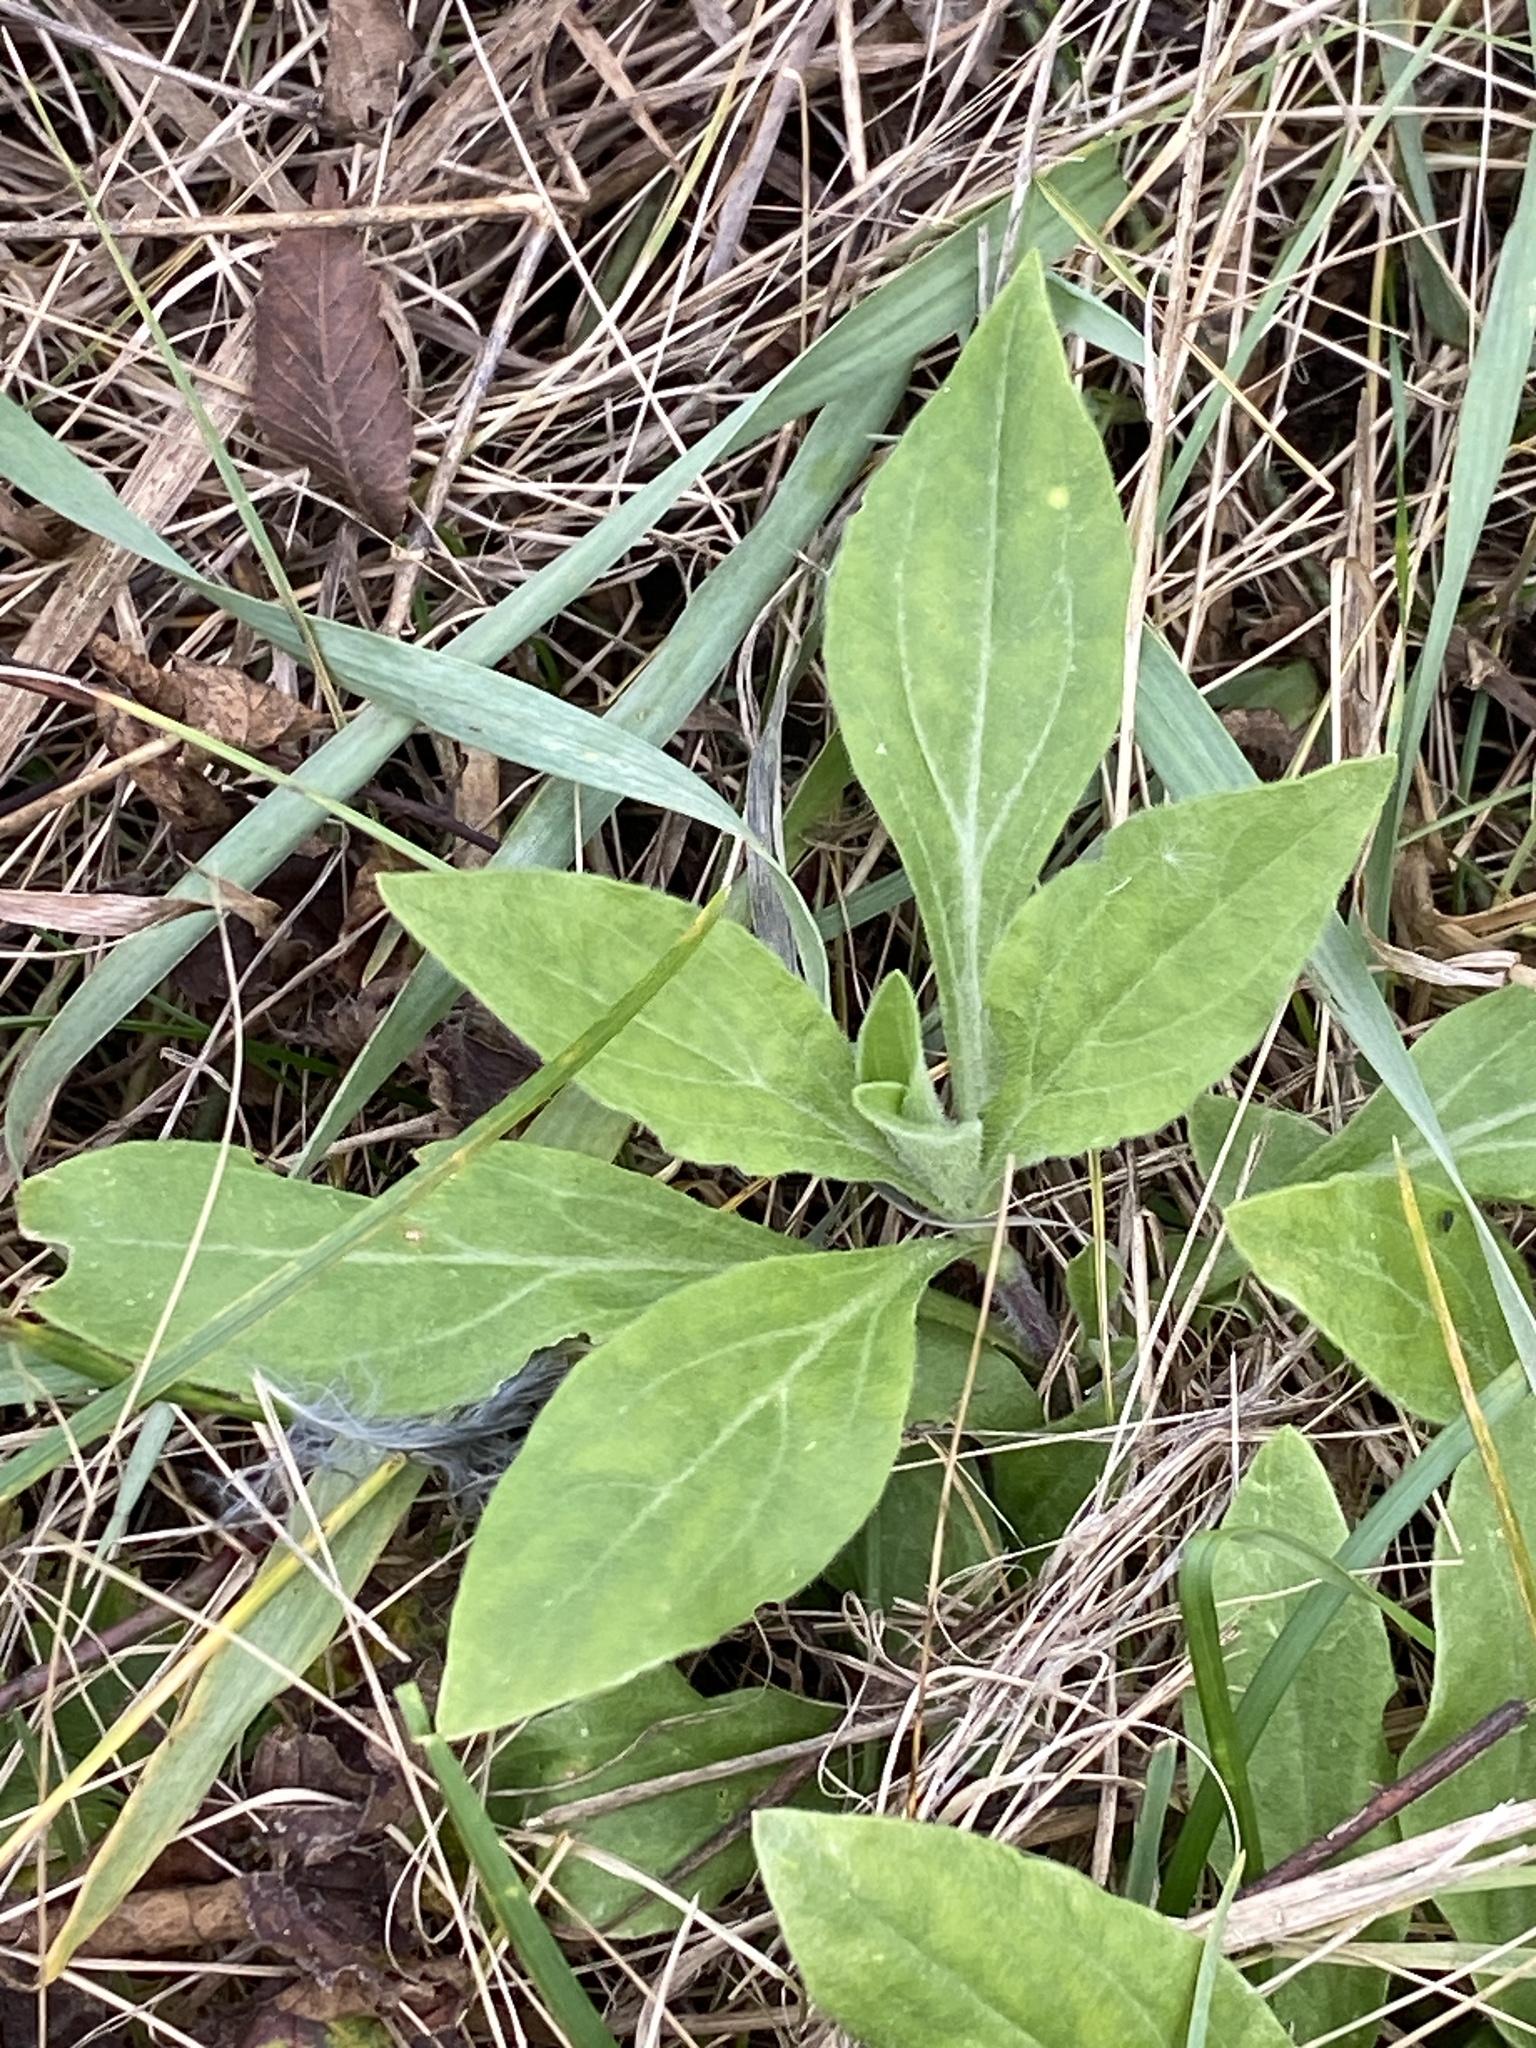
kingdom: Plantae
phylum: Tracheophyta
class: Magnoliopsida
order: Caryophyllales
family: Caryophyllaceae
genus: Silene
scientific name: Silene latifolia
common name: White campion
